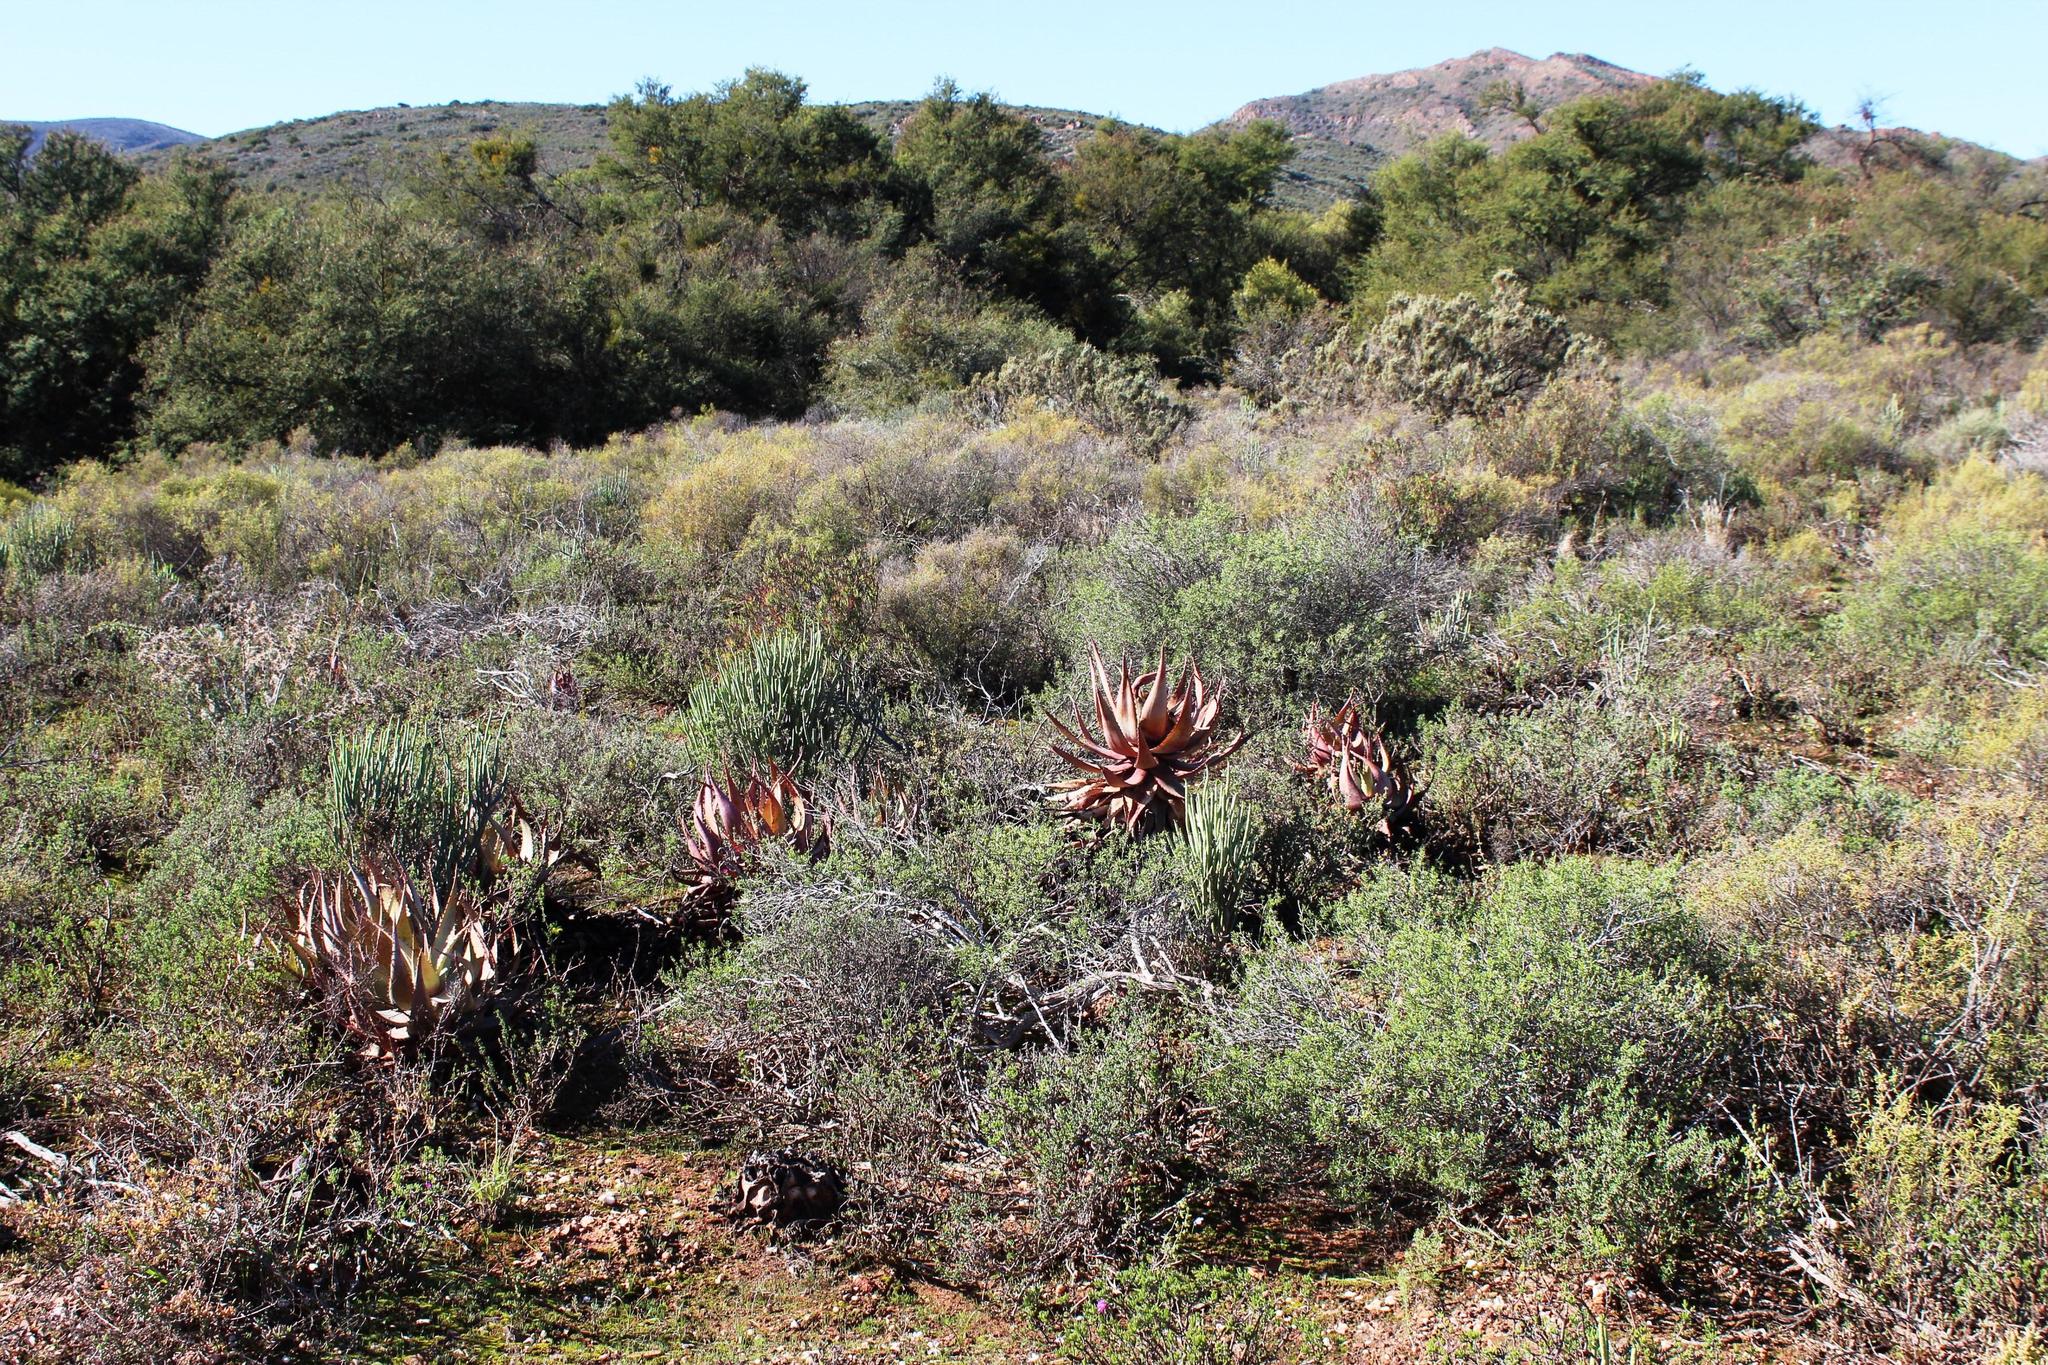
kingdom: Plantae
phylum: Tracheophyta
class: Liliopsida
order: Asparagales
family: Asphodelaceae
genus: Aloe
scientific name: Aloe microstigma
